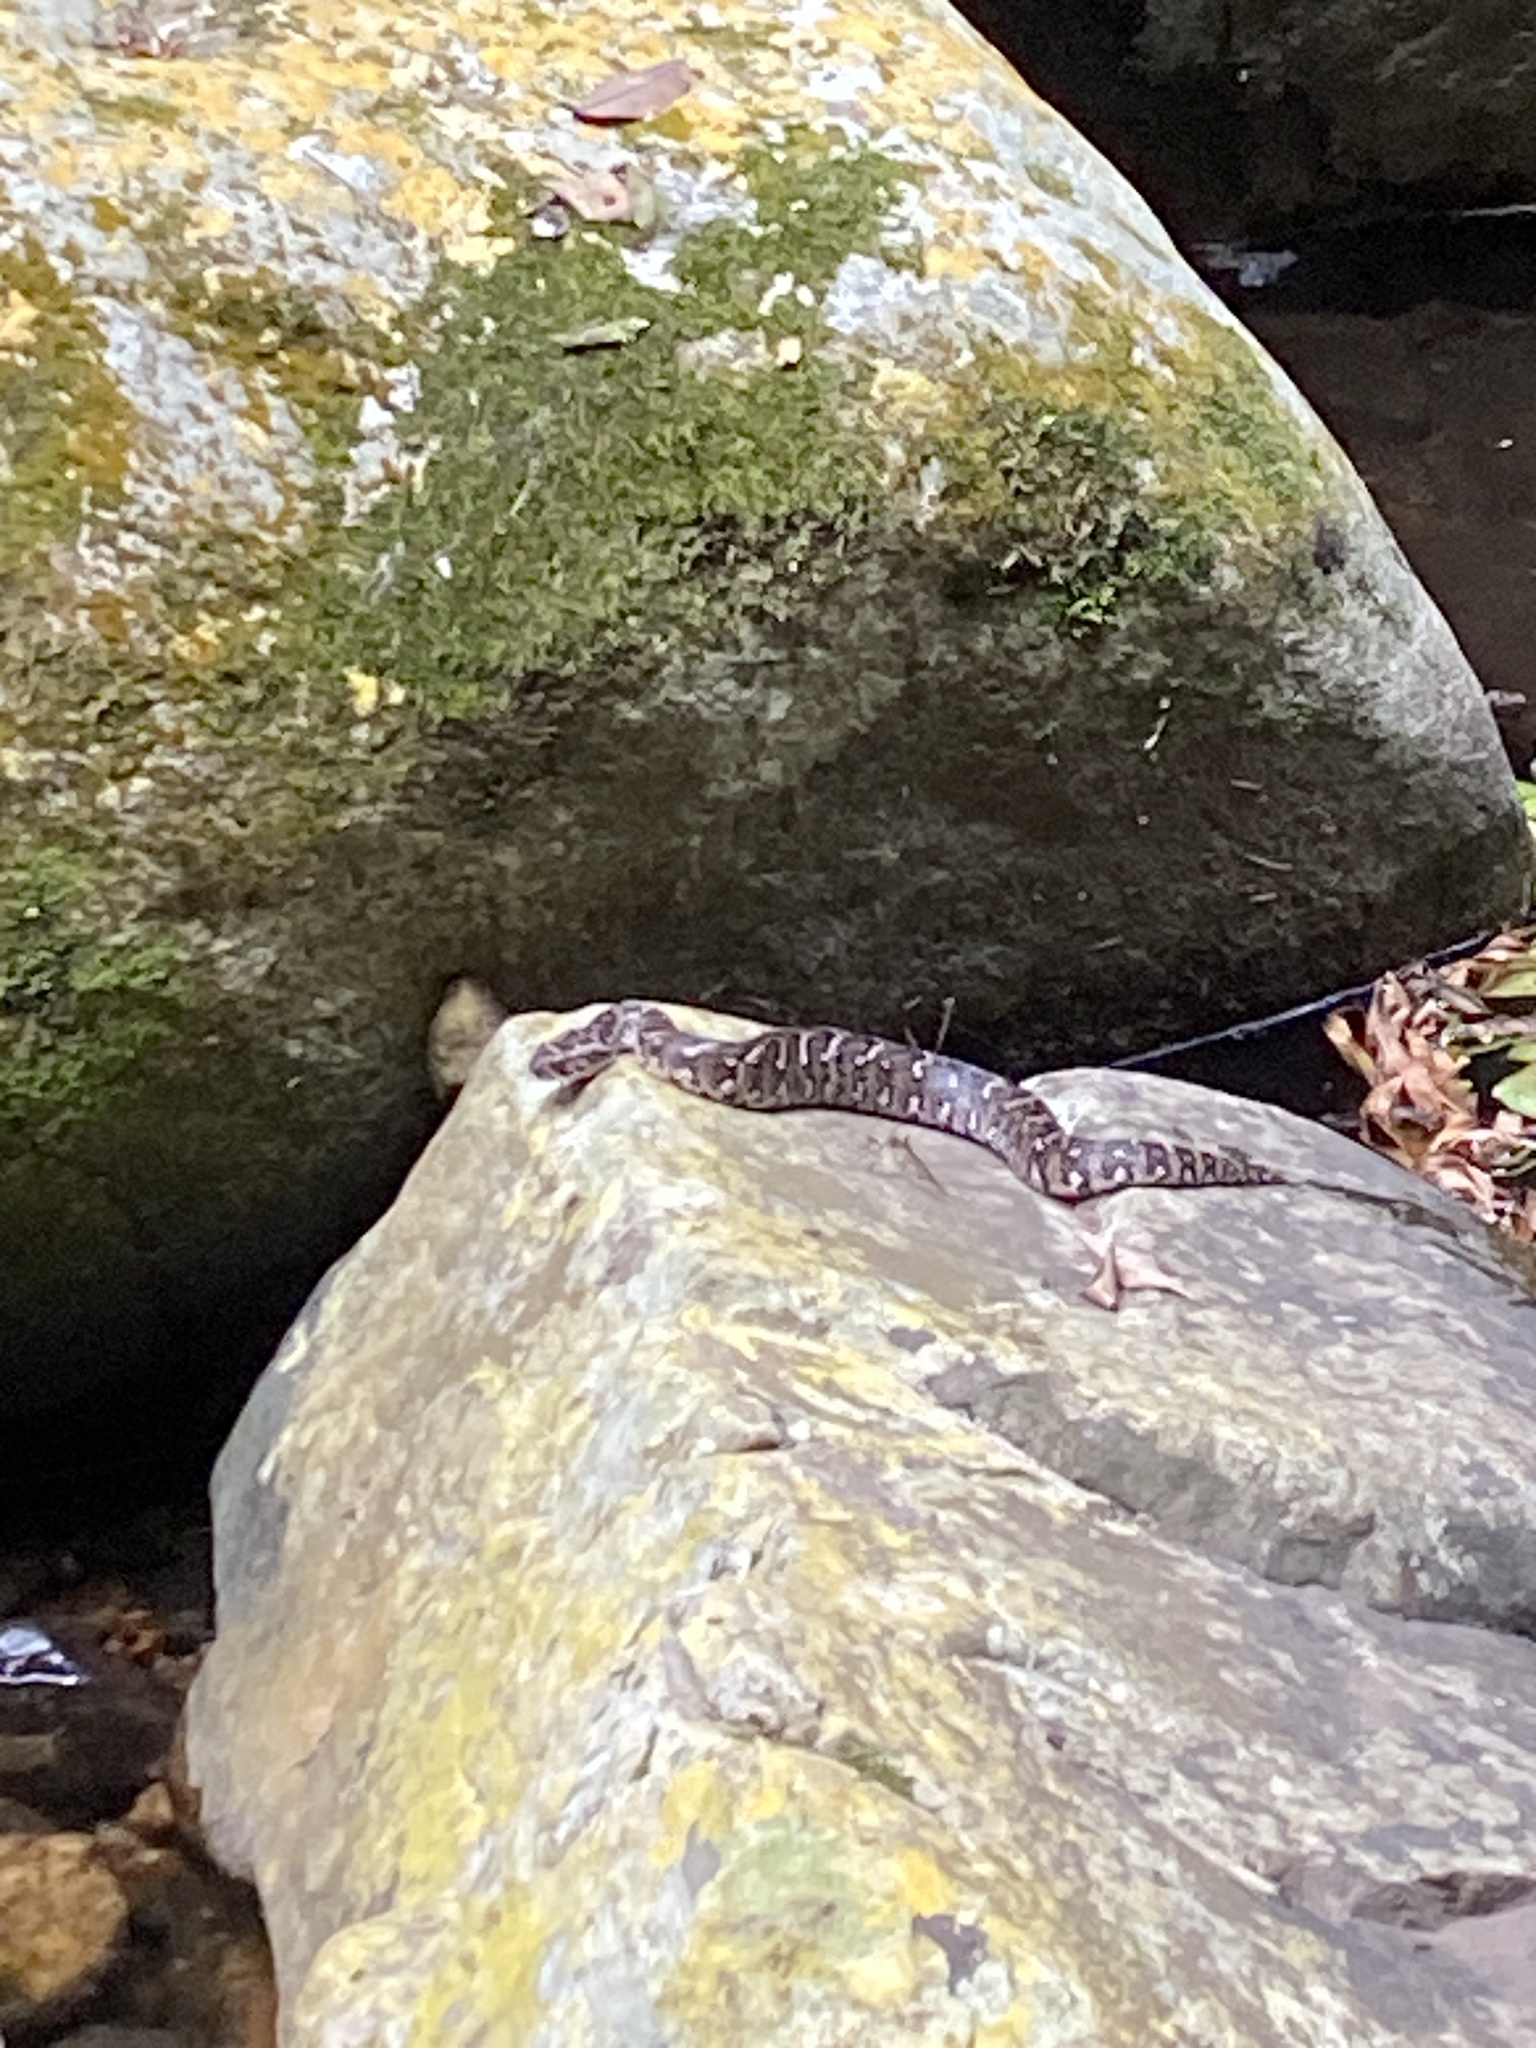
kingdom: Animalia
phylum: Chordata
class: Squamata
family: Viperidae
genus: Bitis
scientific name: Bitis arietans
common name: Puff adder
